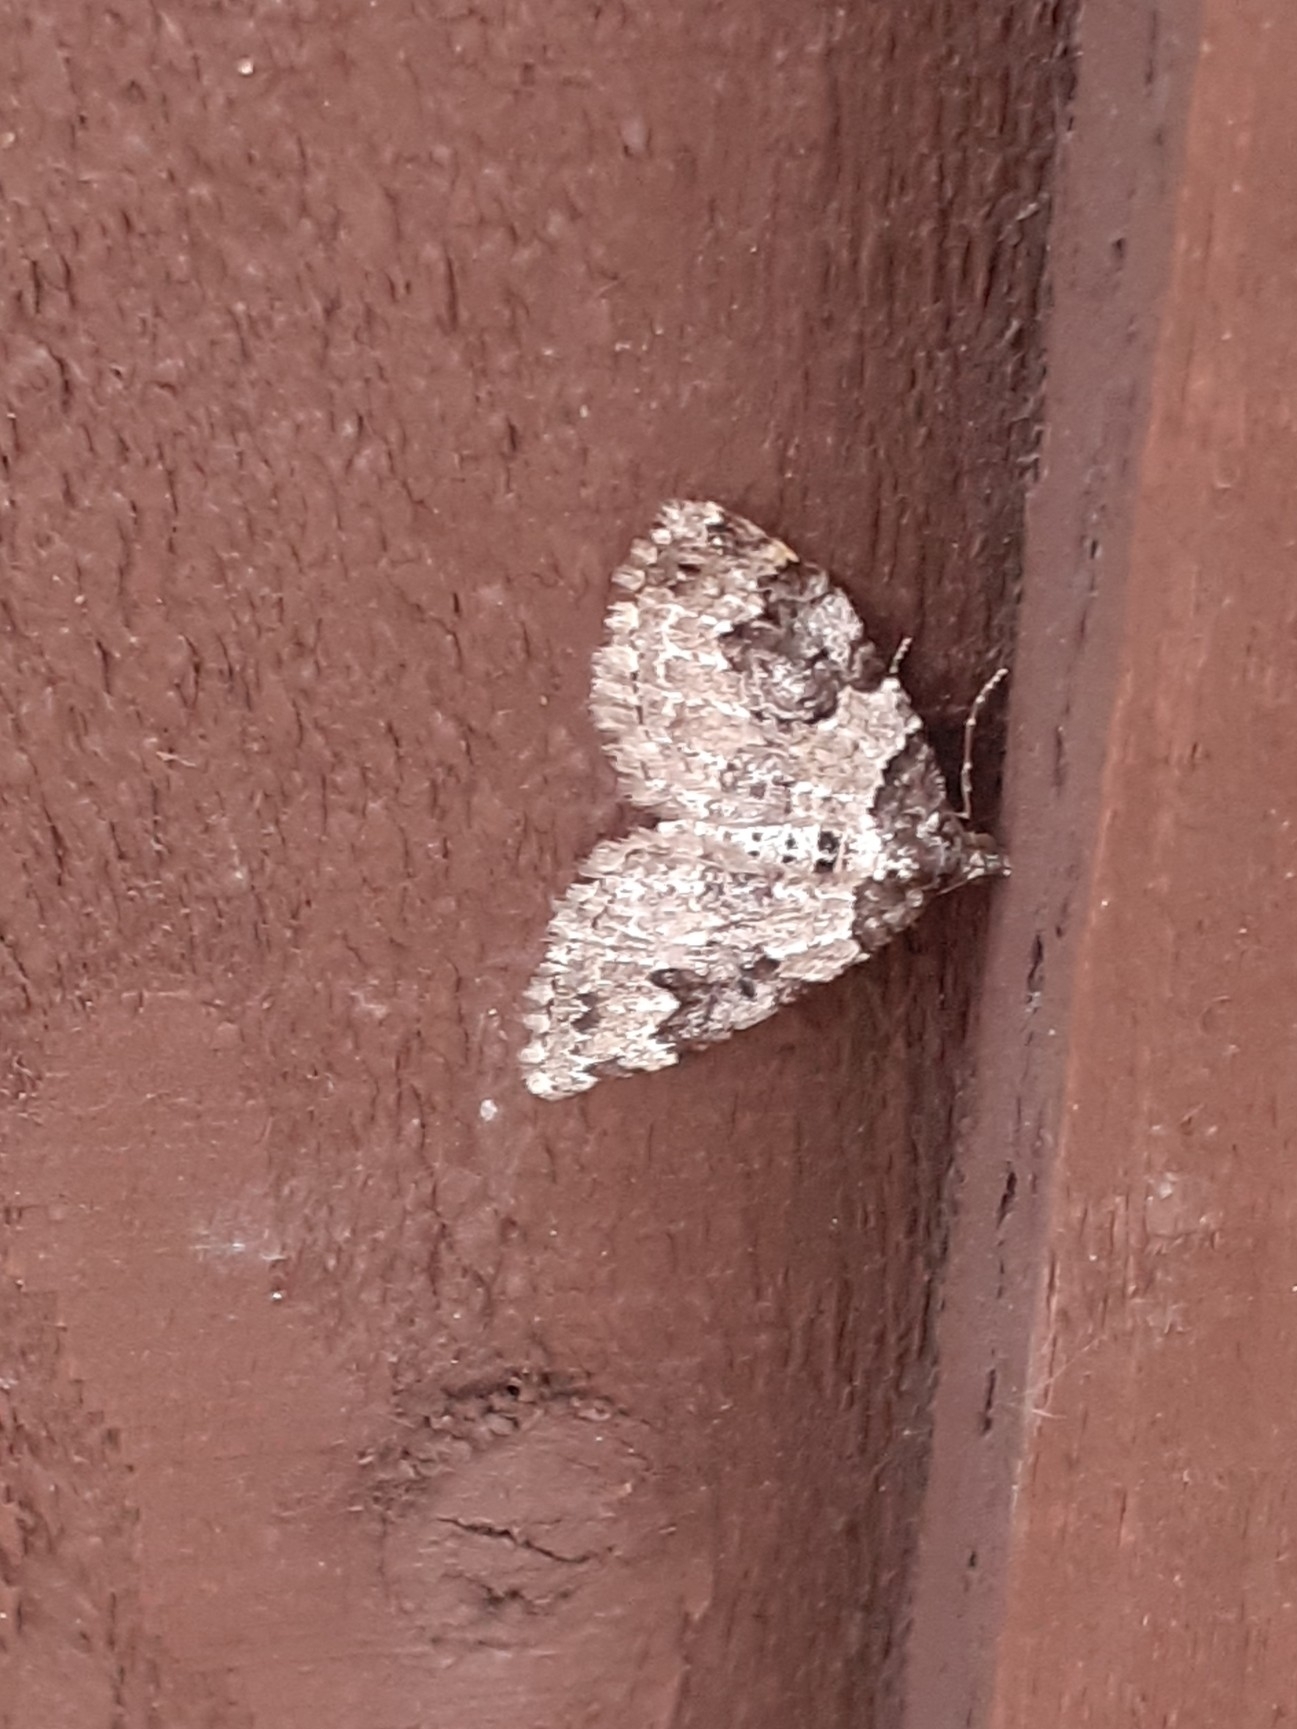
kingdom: Animalia
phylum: Arthropoda
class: Insecta
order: Lepidoptera
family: Geometridae
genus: Xanthorhoe
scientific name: Xanthorhoe fluctuata
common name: Garden carpet
